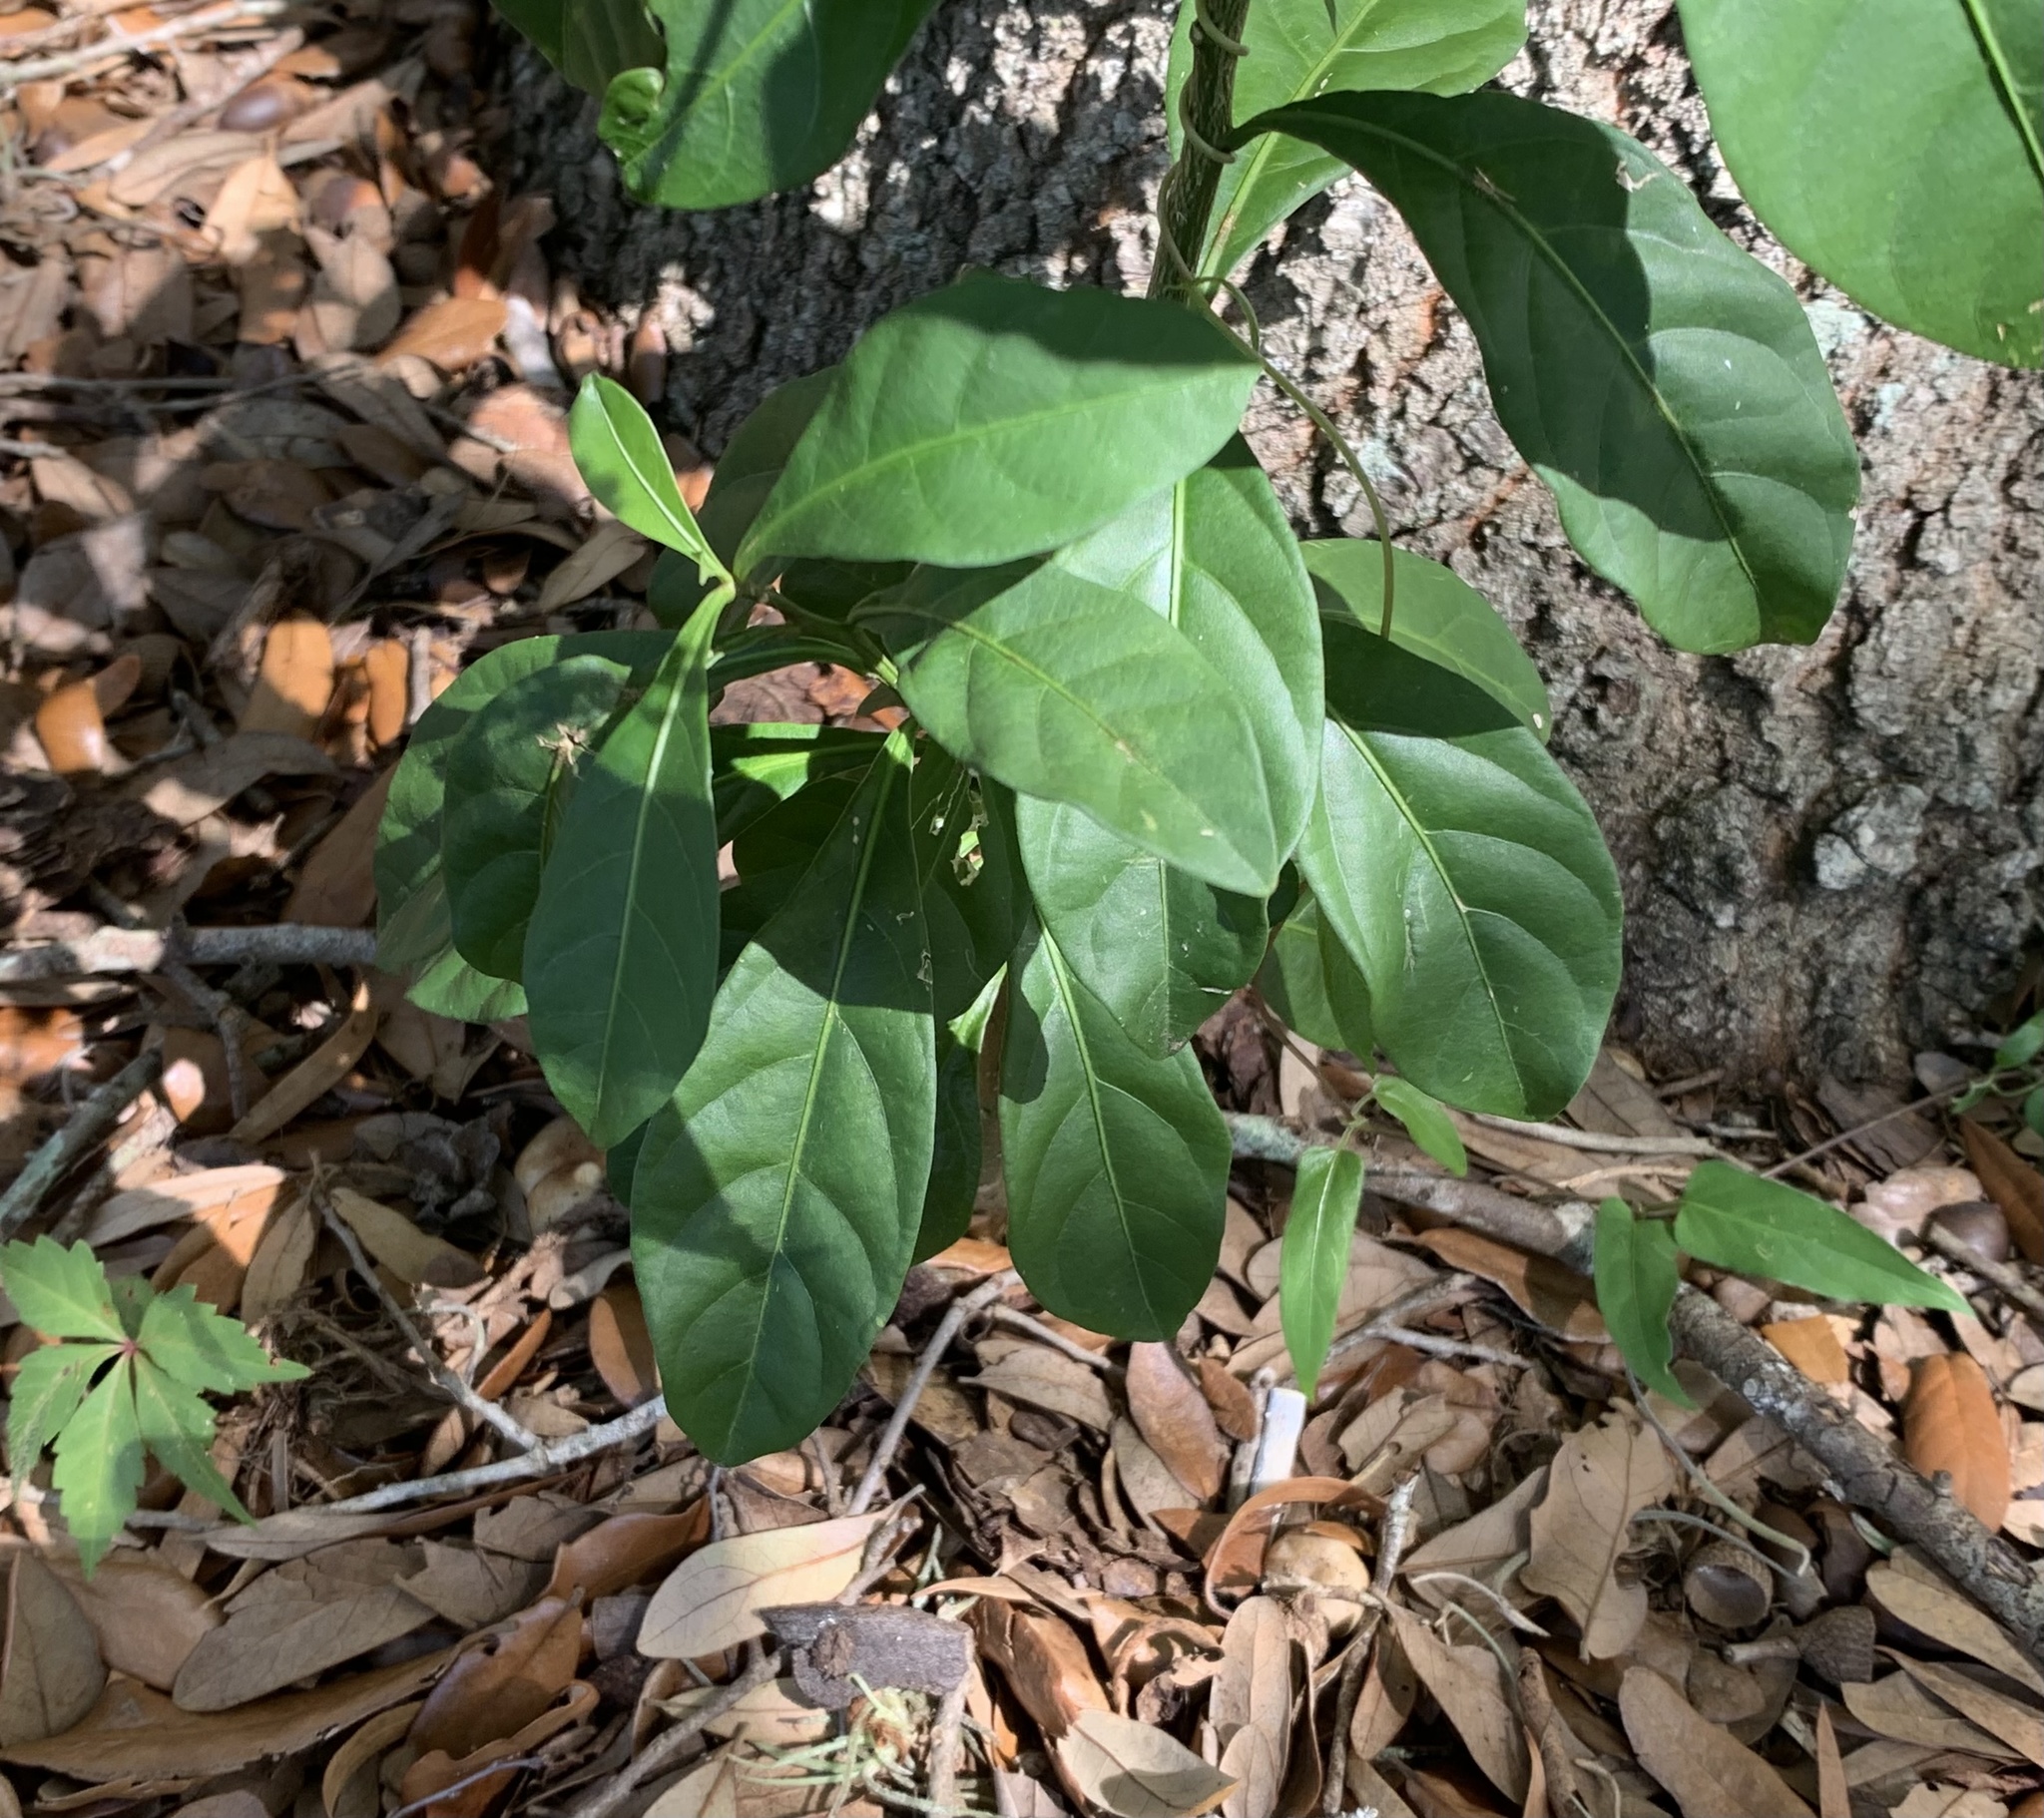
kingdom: Plantae
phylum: Tracheophyta
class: Magnoliopsida
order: Solanales
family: Solanaceae
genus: Solanum
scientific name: Solanum diphyllum
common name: Twoleaf nightshade
